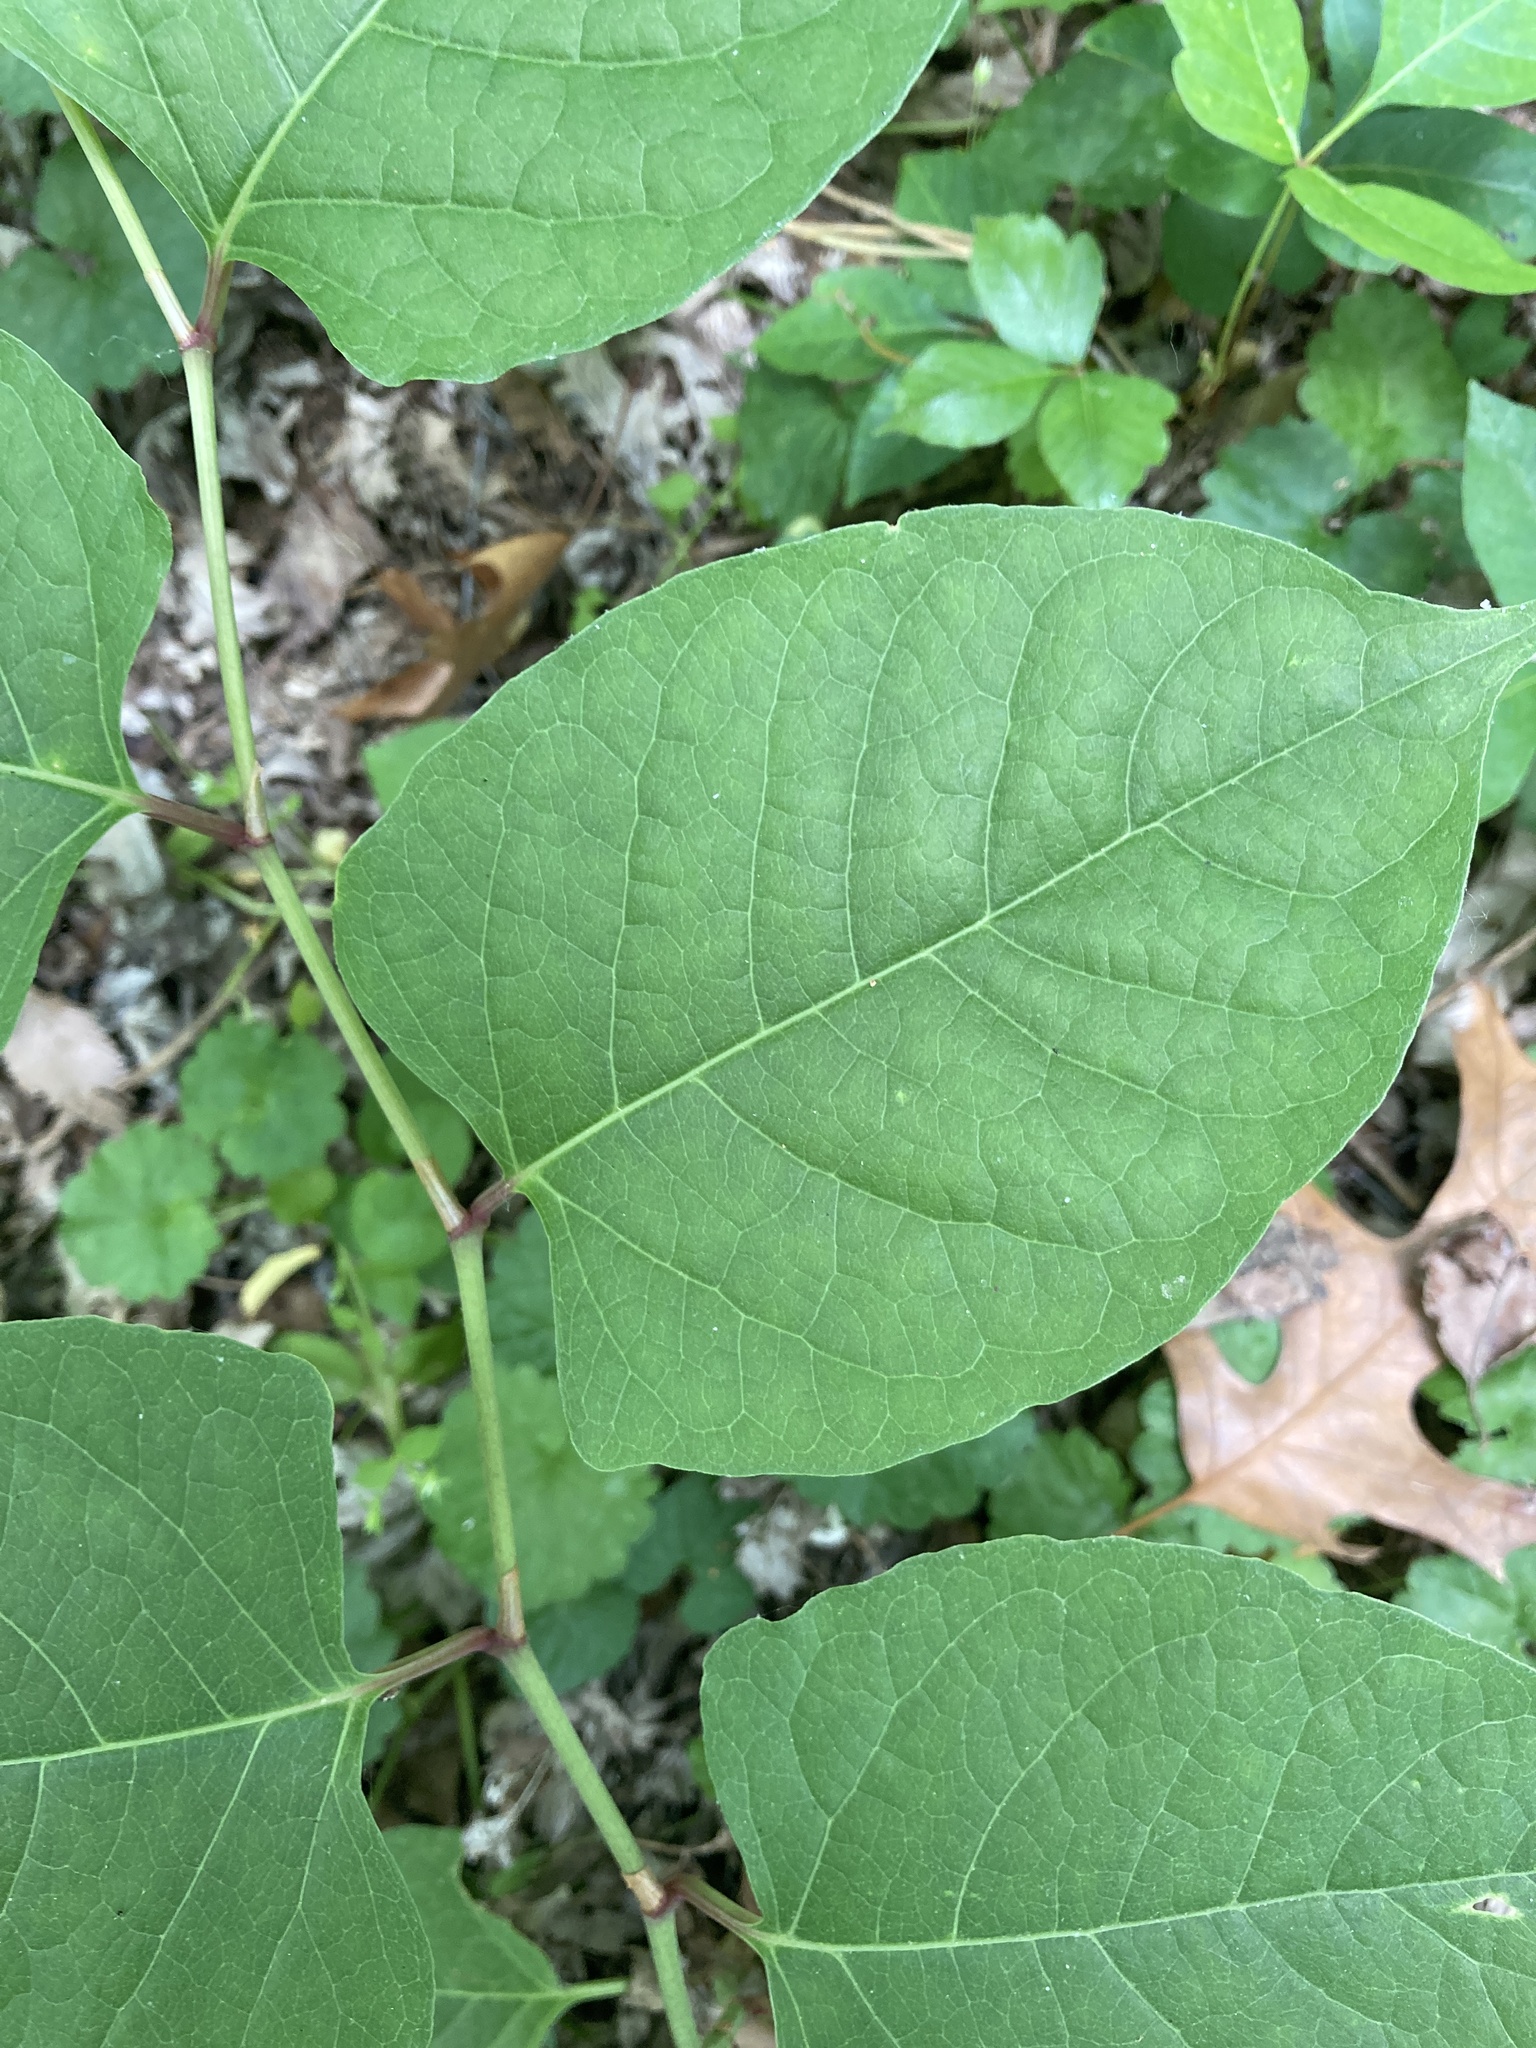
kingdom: Plantae
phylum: Tracheophyta
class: Magnoliopsida
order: Caryophyllales
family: Polygonaceae
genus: Reynoutria
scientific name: Reynoutria japonica
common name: Japanese knotweed
